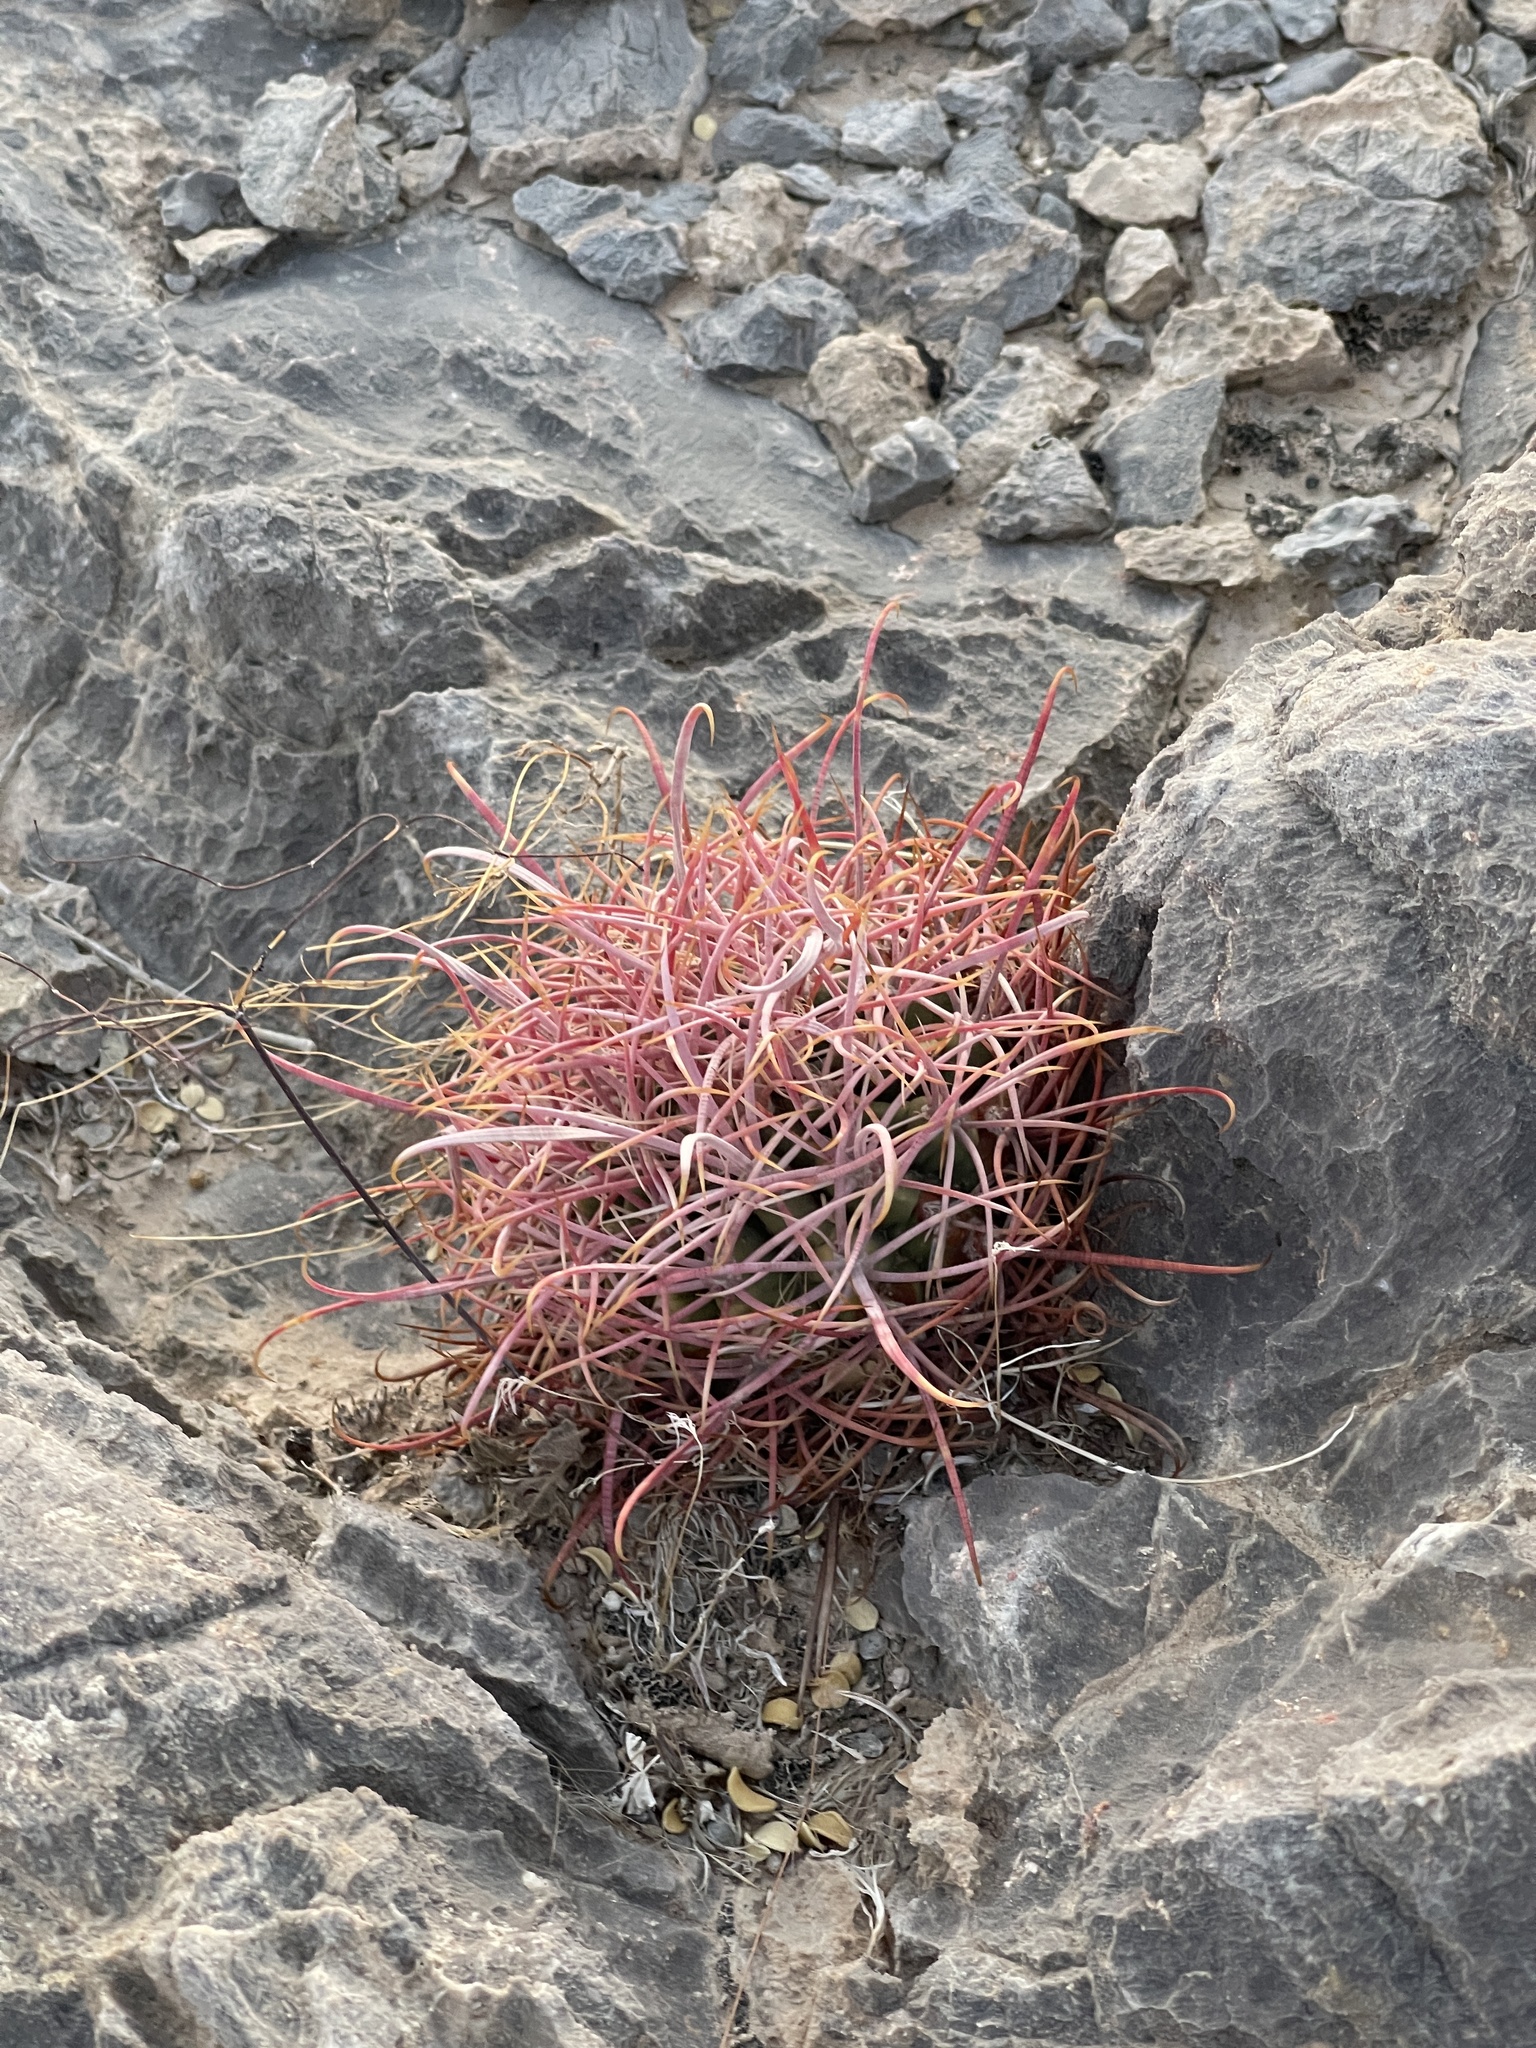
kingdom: Plantae
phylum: Tracheophyta
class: Magnoliopsida
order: Caryophyllales
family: Cactaceae
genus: Ferocactus
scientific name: Ferocactus cylindraceus
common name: California barrel cactus
